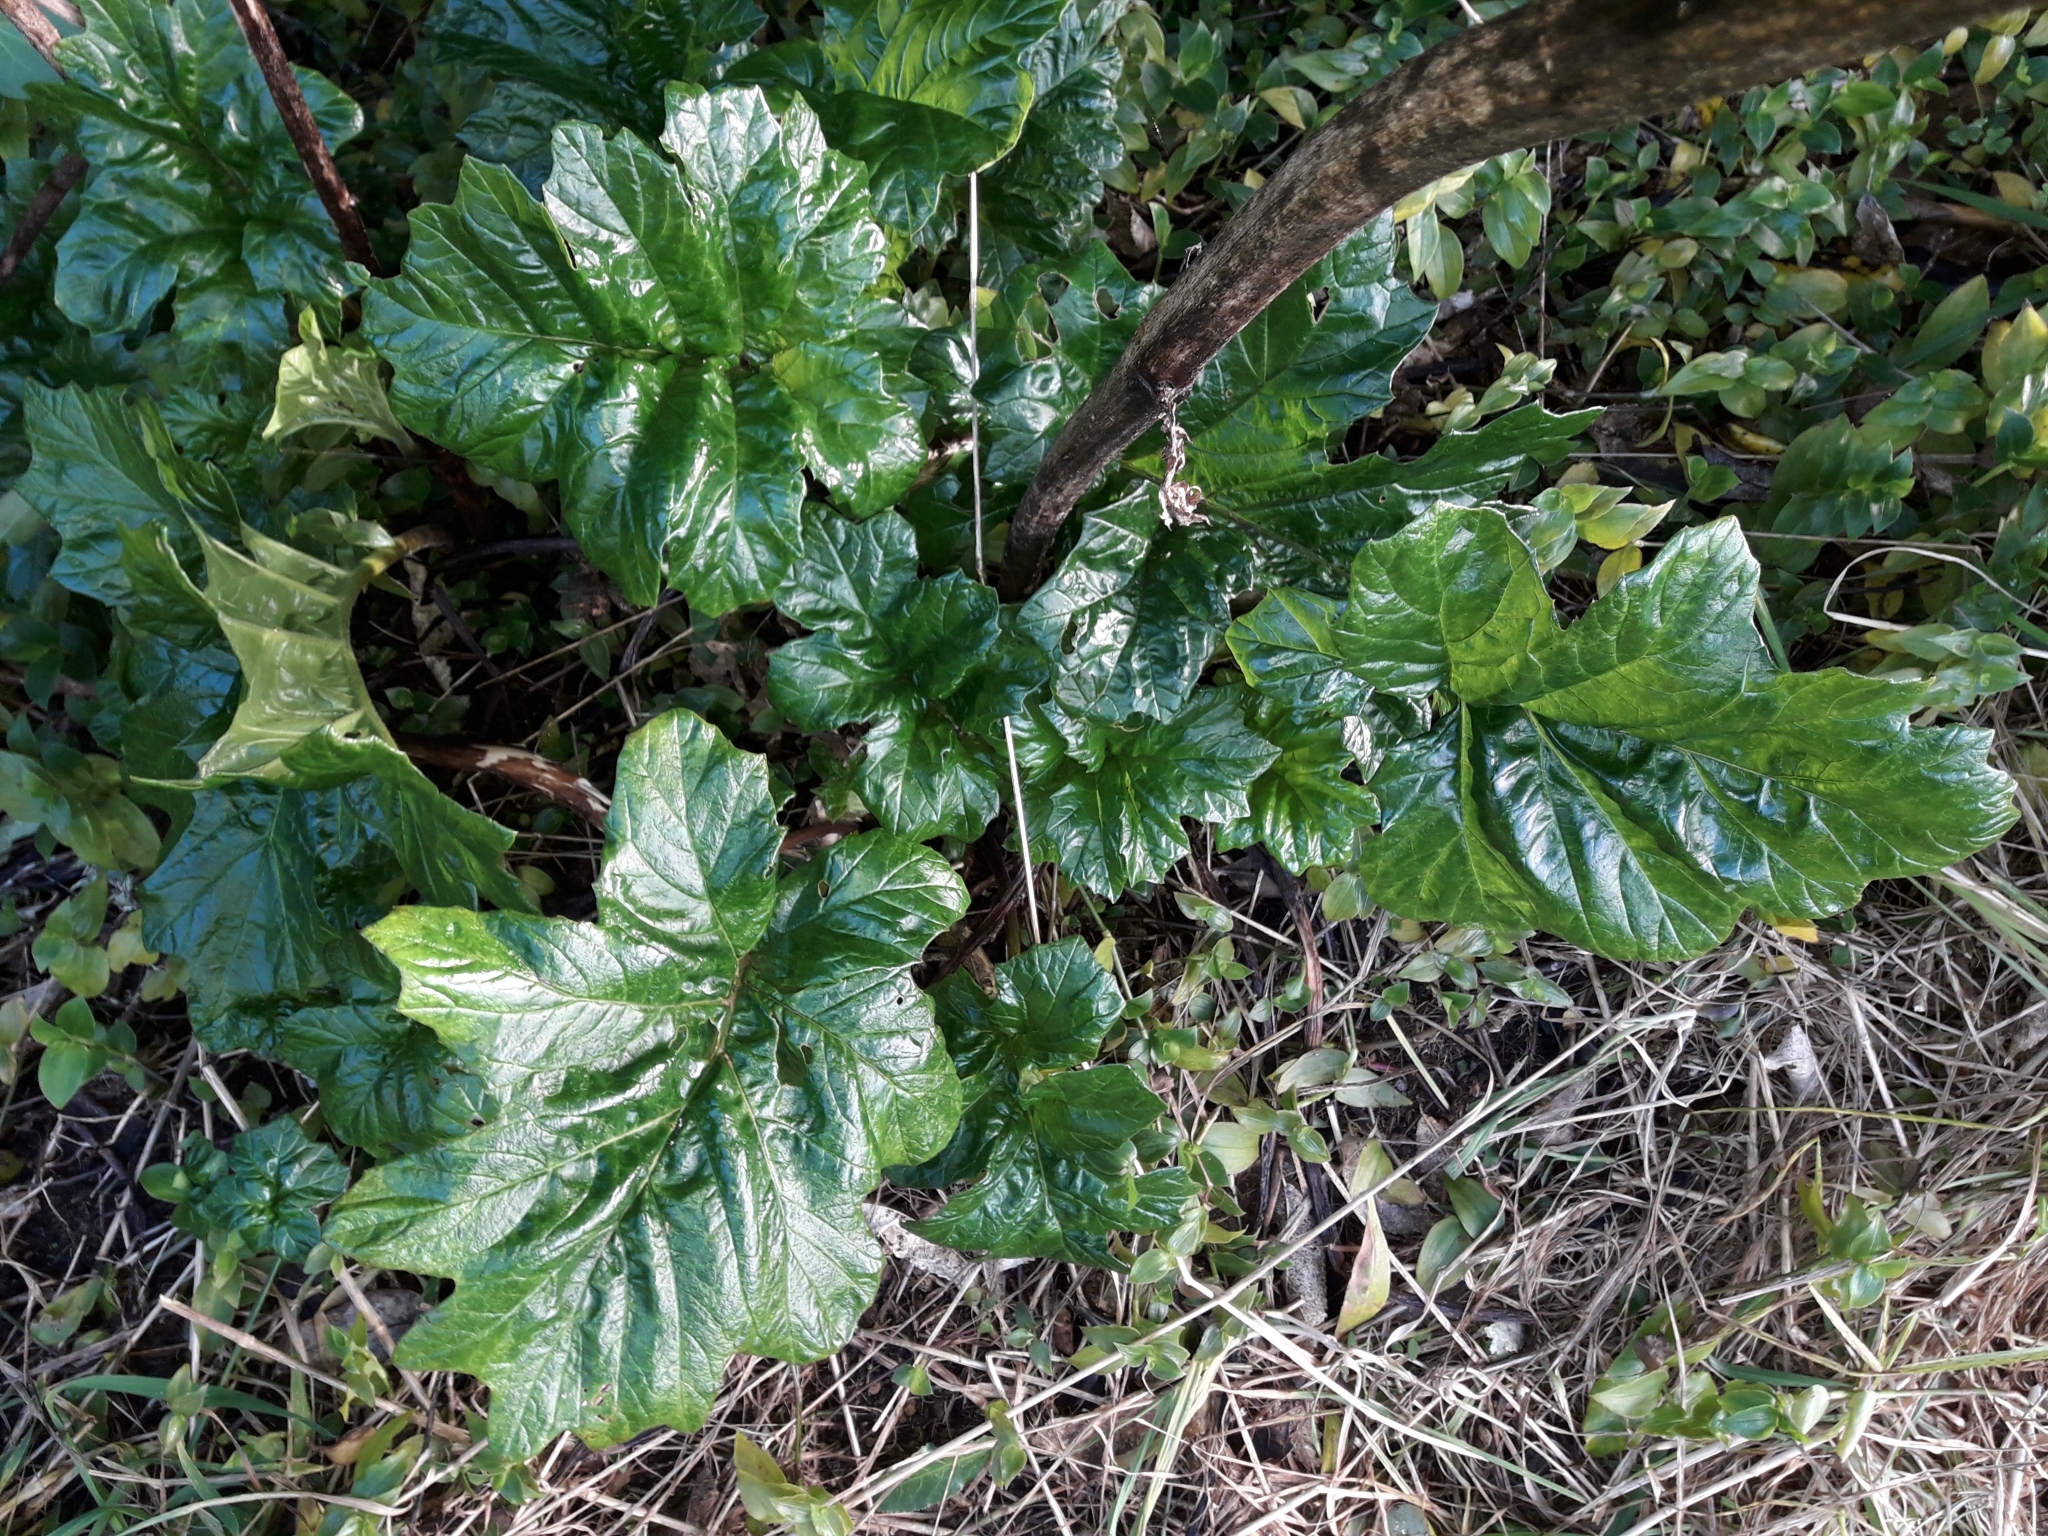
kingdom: Plantae
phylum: Tracheophyta
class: Magnoliopsida
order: Lamiales
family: Acanthaceae
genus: Acanthus
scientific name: Acanthus mollis
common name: Bear's-breech
